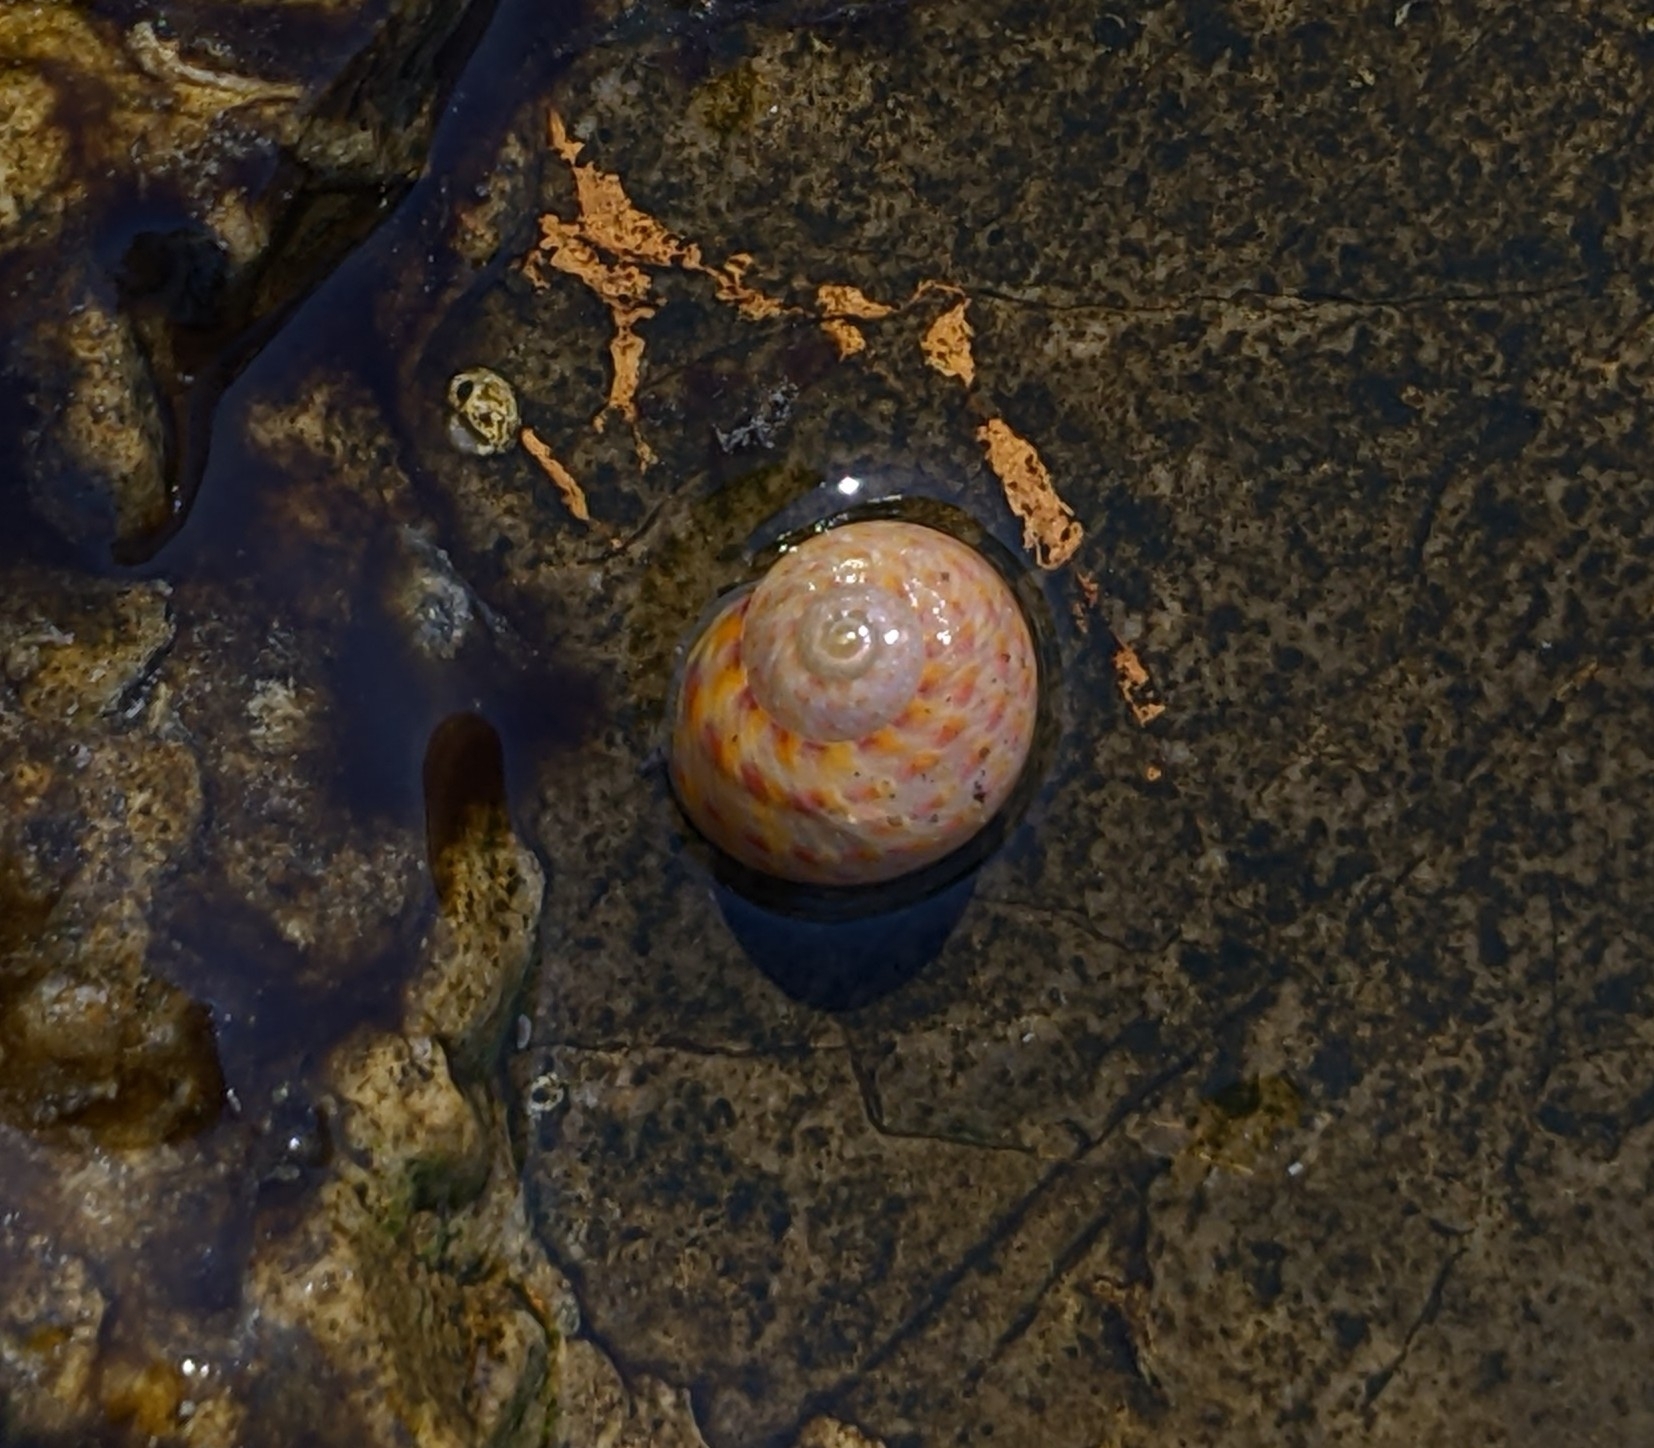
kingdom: Animalia
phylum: Mollusca
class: Gastropoda
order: Trochida
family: Trochidae
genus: Phorcus
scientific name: Phorcus richardi
